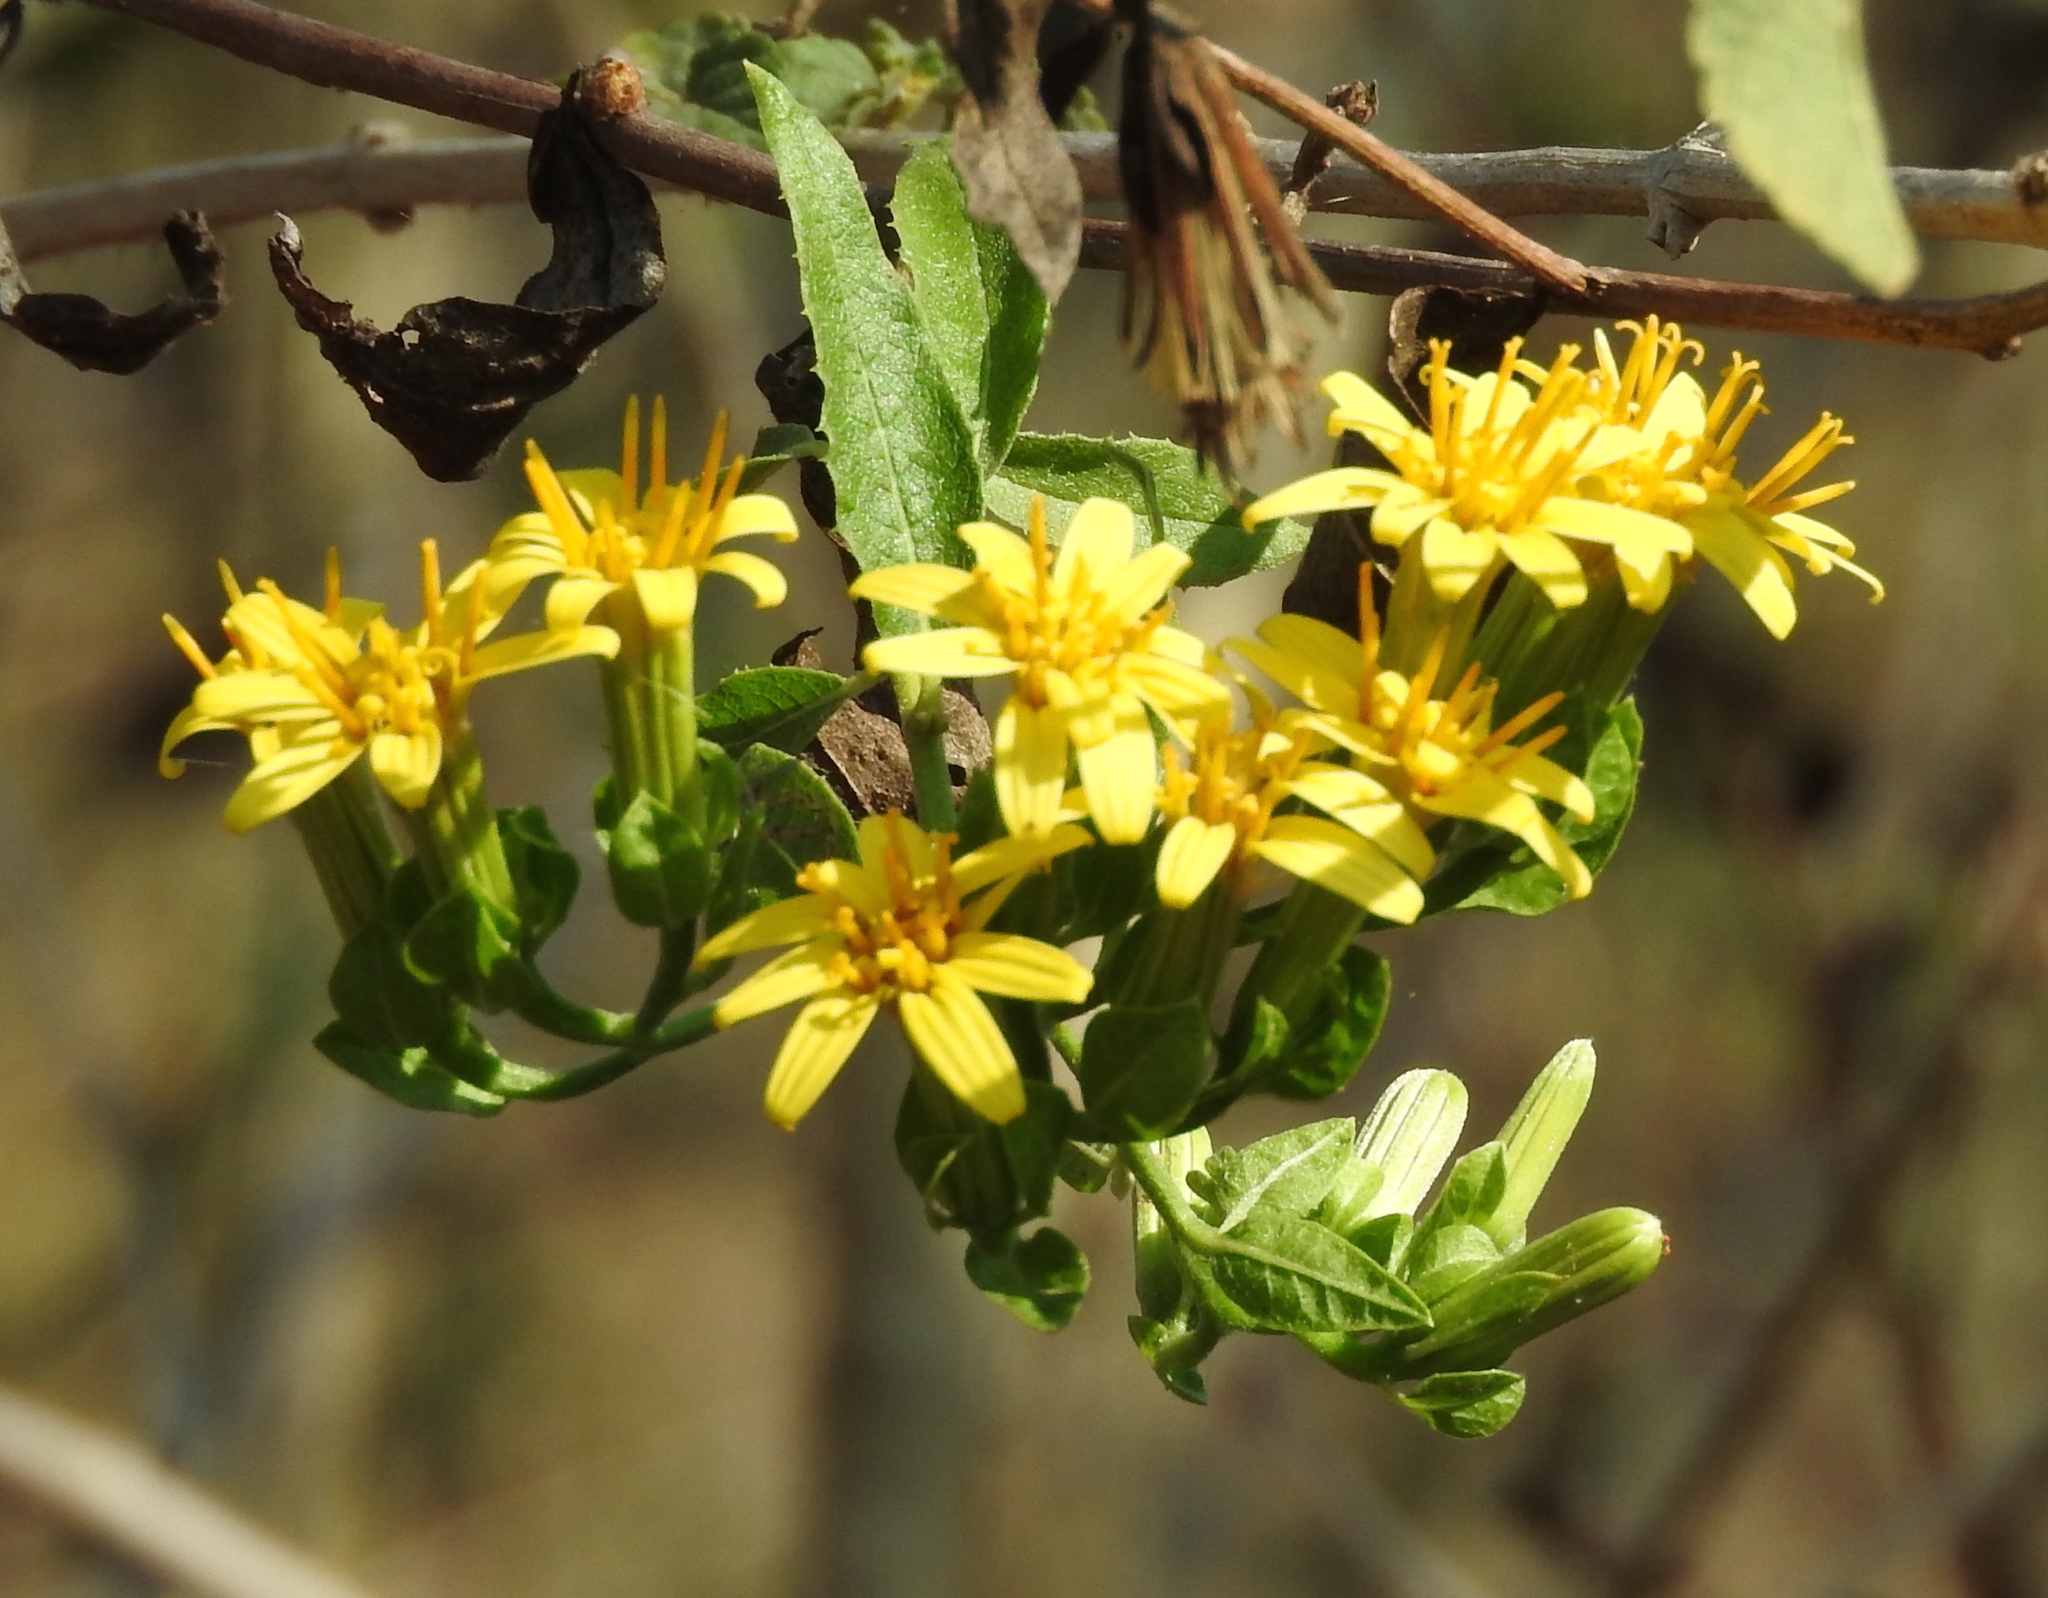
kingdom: Plantae
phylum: Tracheophyta
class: Magnoliopsida
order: Asterales
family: Asteraceae
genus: Trixis
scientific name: Trixis pterocaulis
